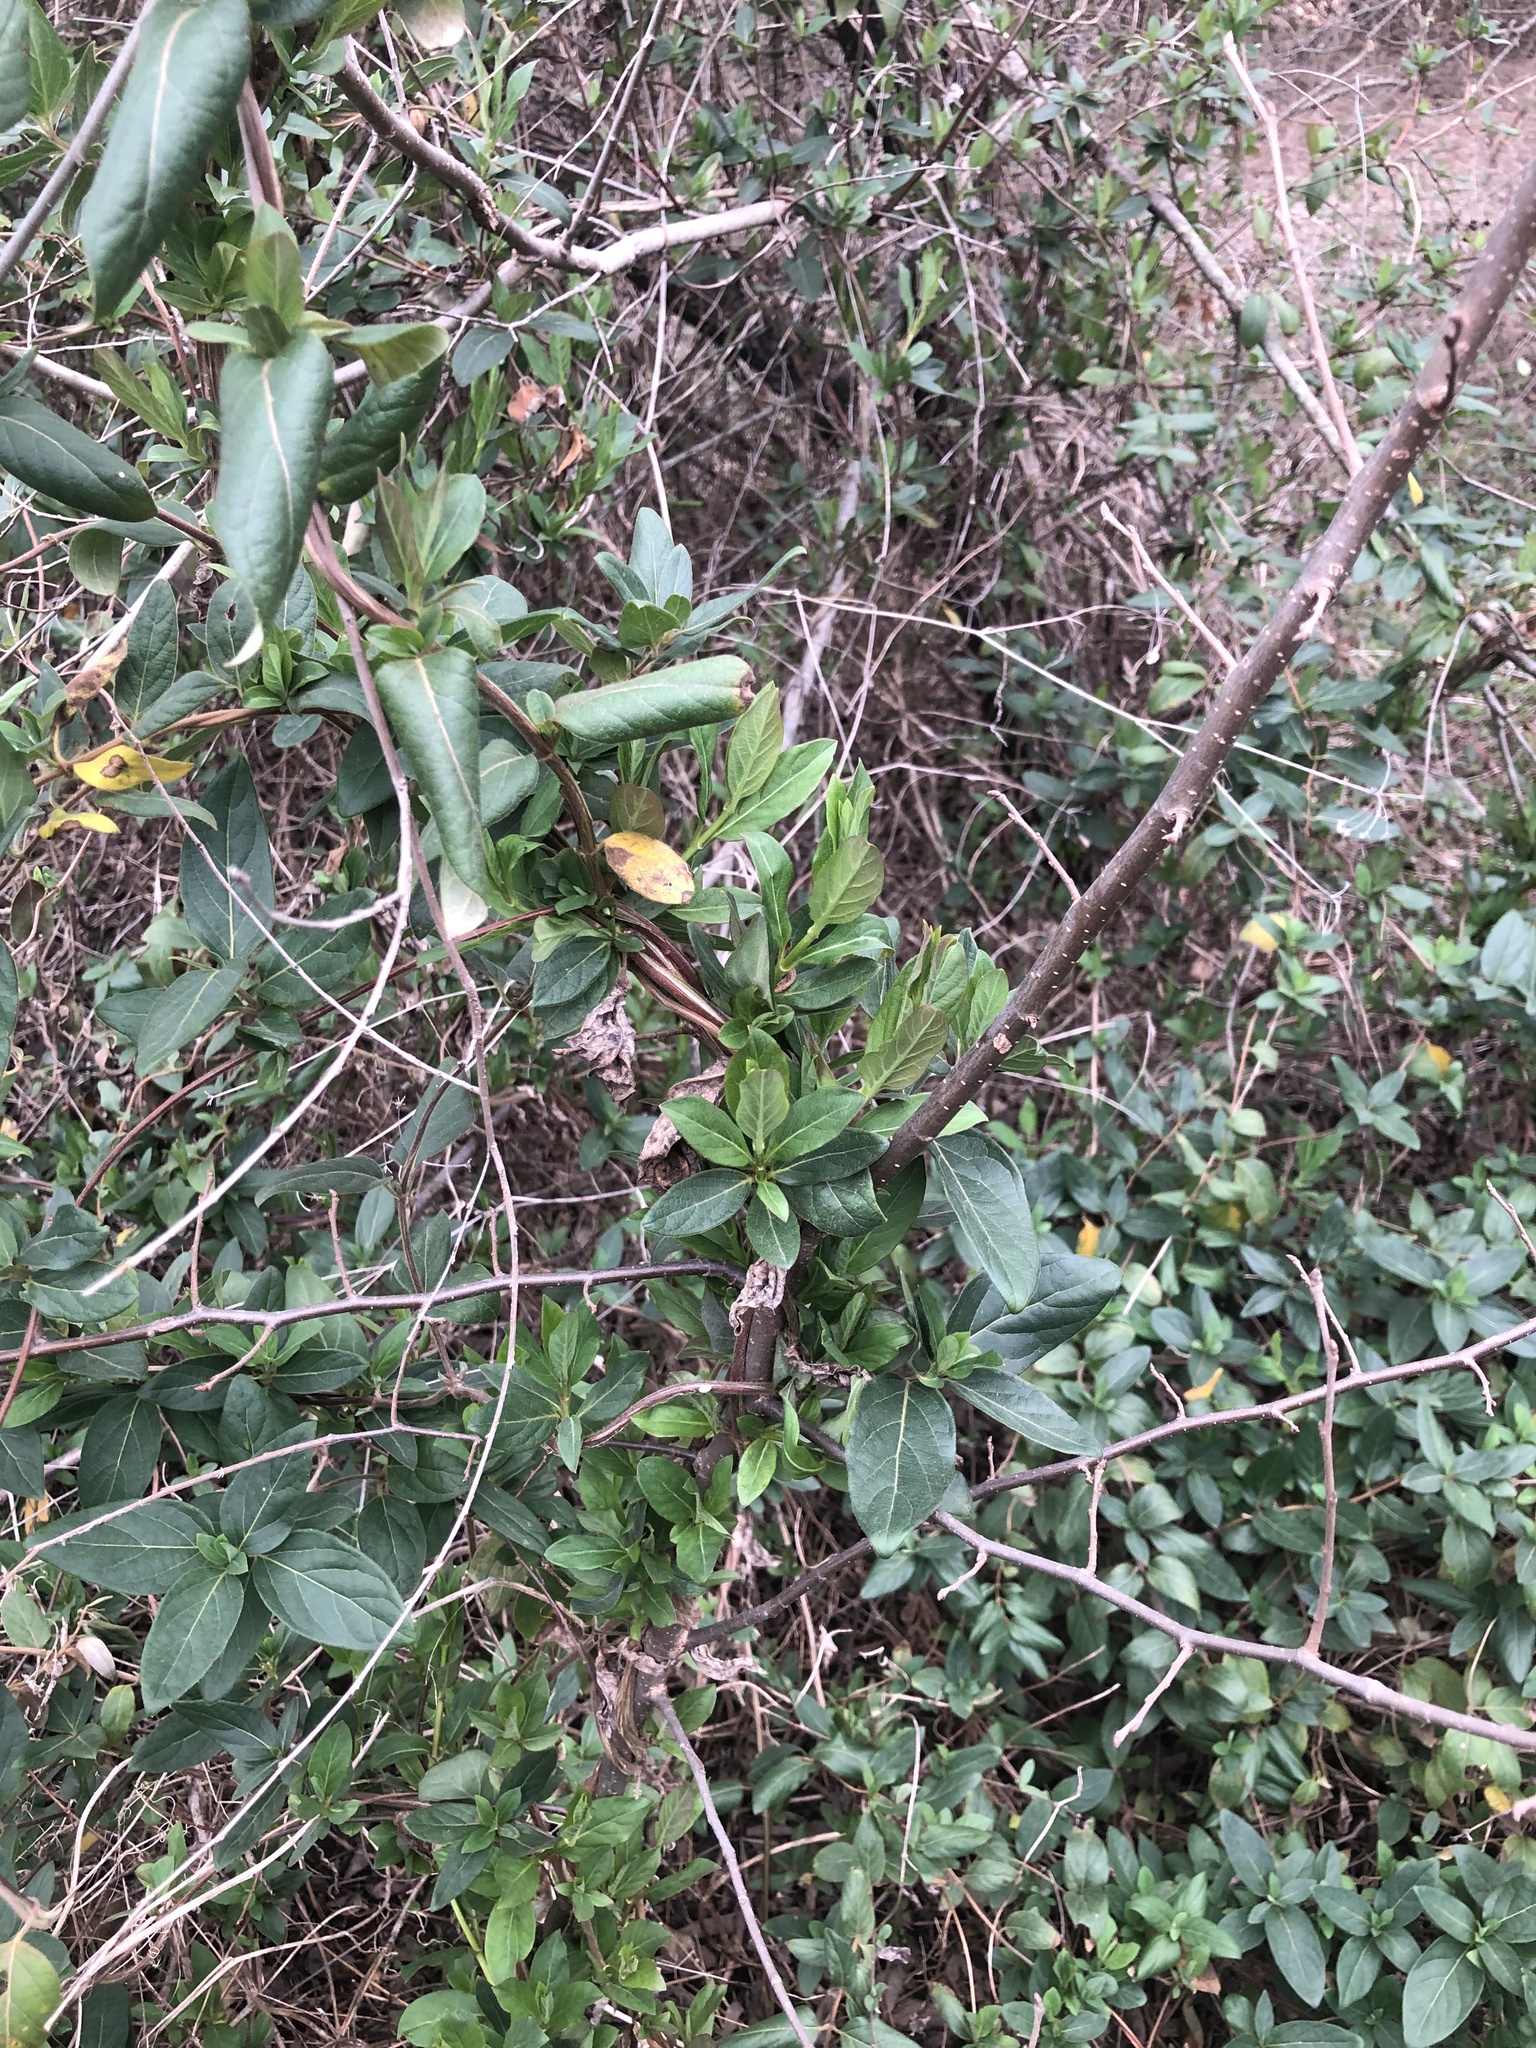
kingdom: Plantae
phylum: Tracheophyta
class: Magnoliopsida
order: Dipsacales
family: Caprifoliaceae
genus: Lonicera
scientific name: Lonicera japonica
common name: Japanese honeysuckle
